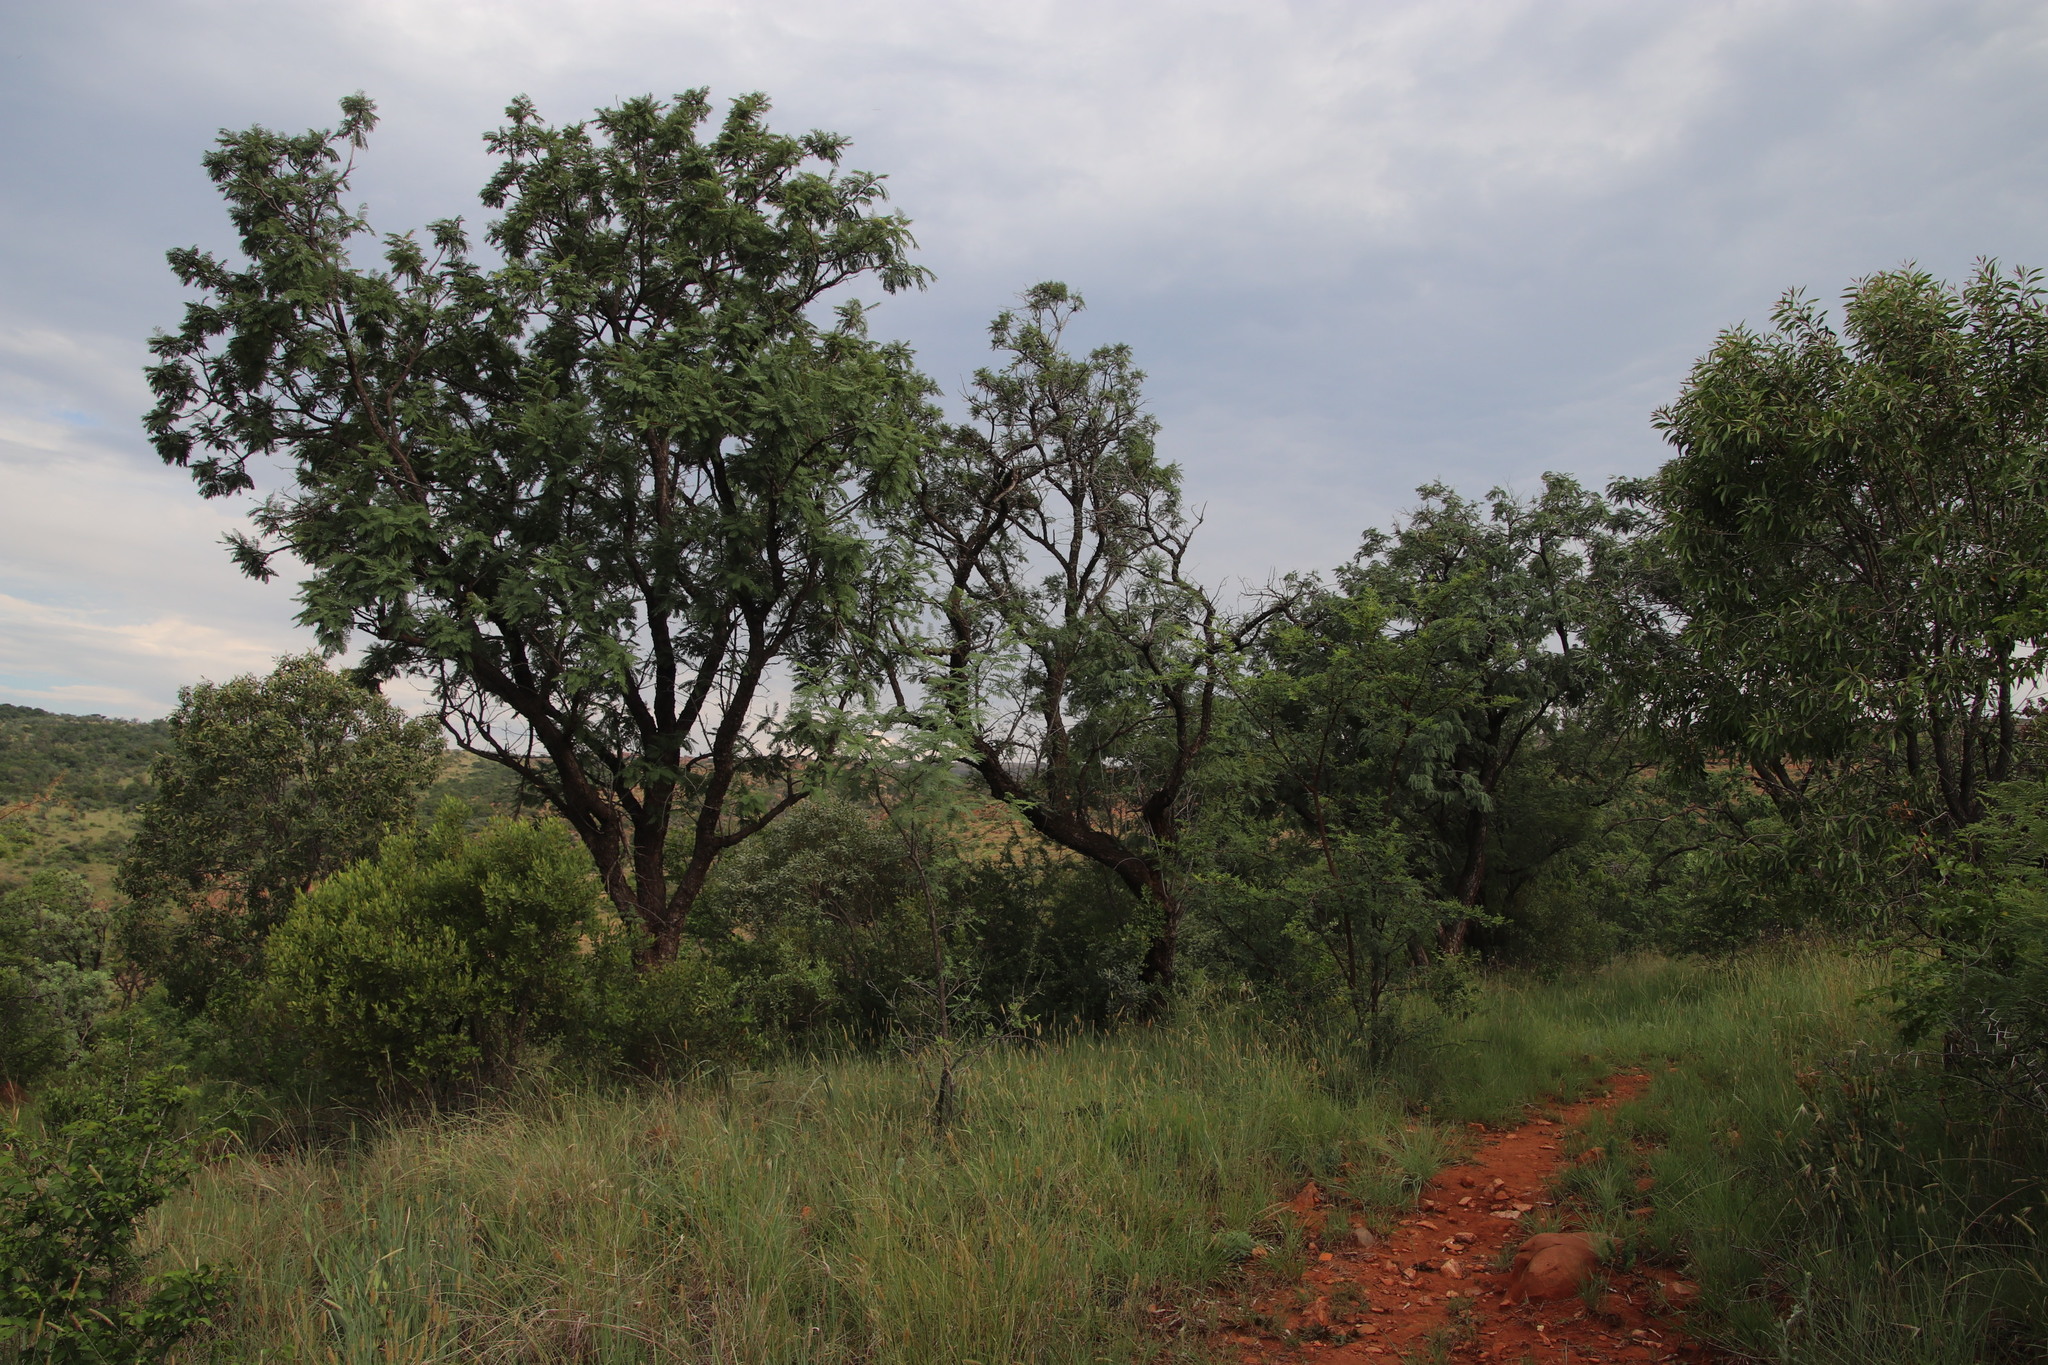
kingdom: Plantae
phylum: Tracheophyta
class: Magnoliopsida
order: Fabales
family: Fabaceae
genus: Senegalia
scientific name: Senegalia caffra
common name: Cat thorn
